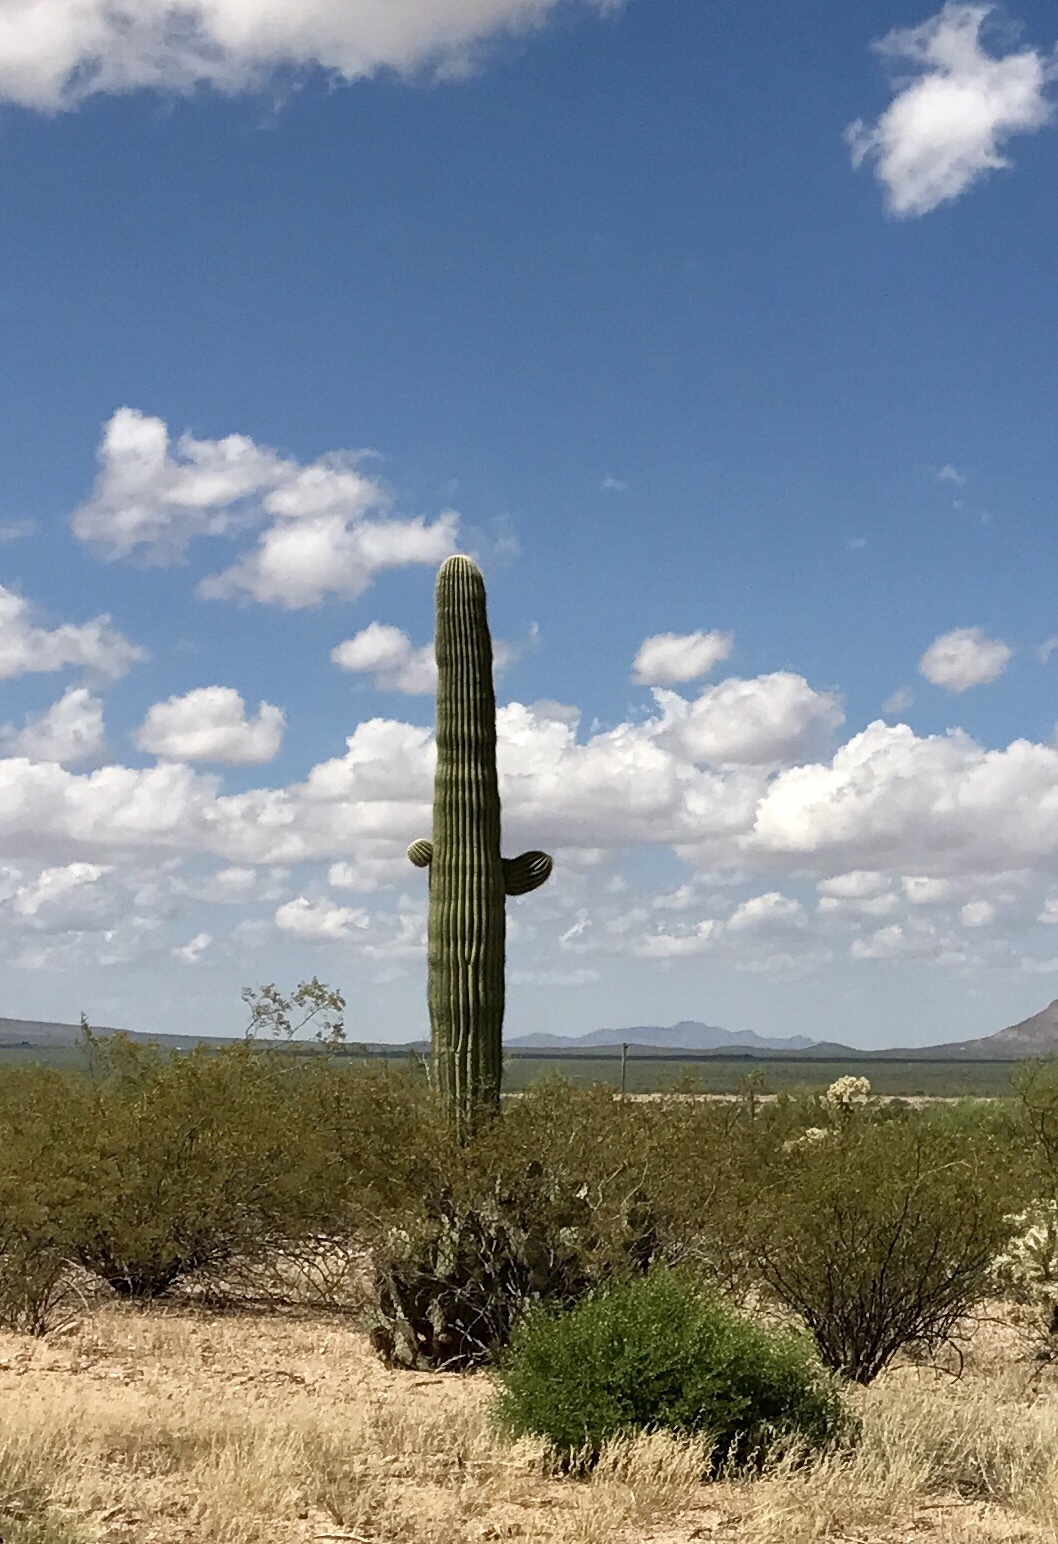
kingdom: Plantae
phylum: Tracheophyta
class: Magnoliopsida
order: Caryophyllales
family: Cactaceae
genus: Carnegiea
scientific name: Carnegiea gigantea
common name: Saguaro
